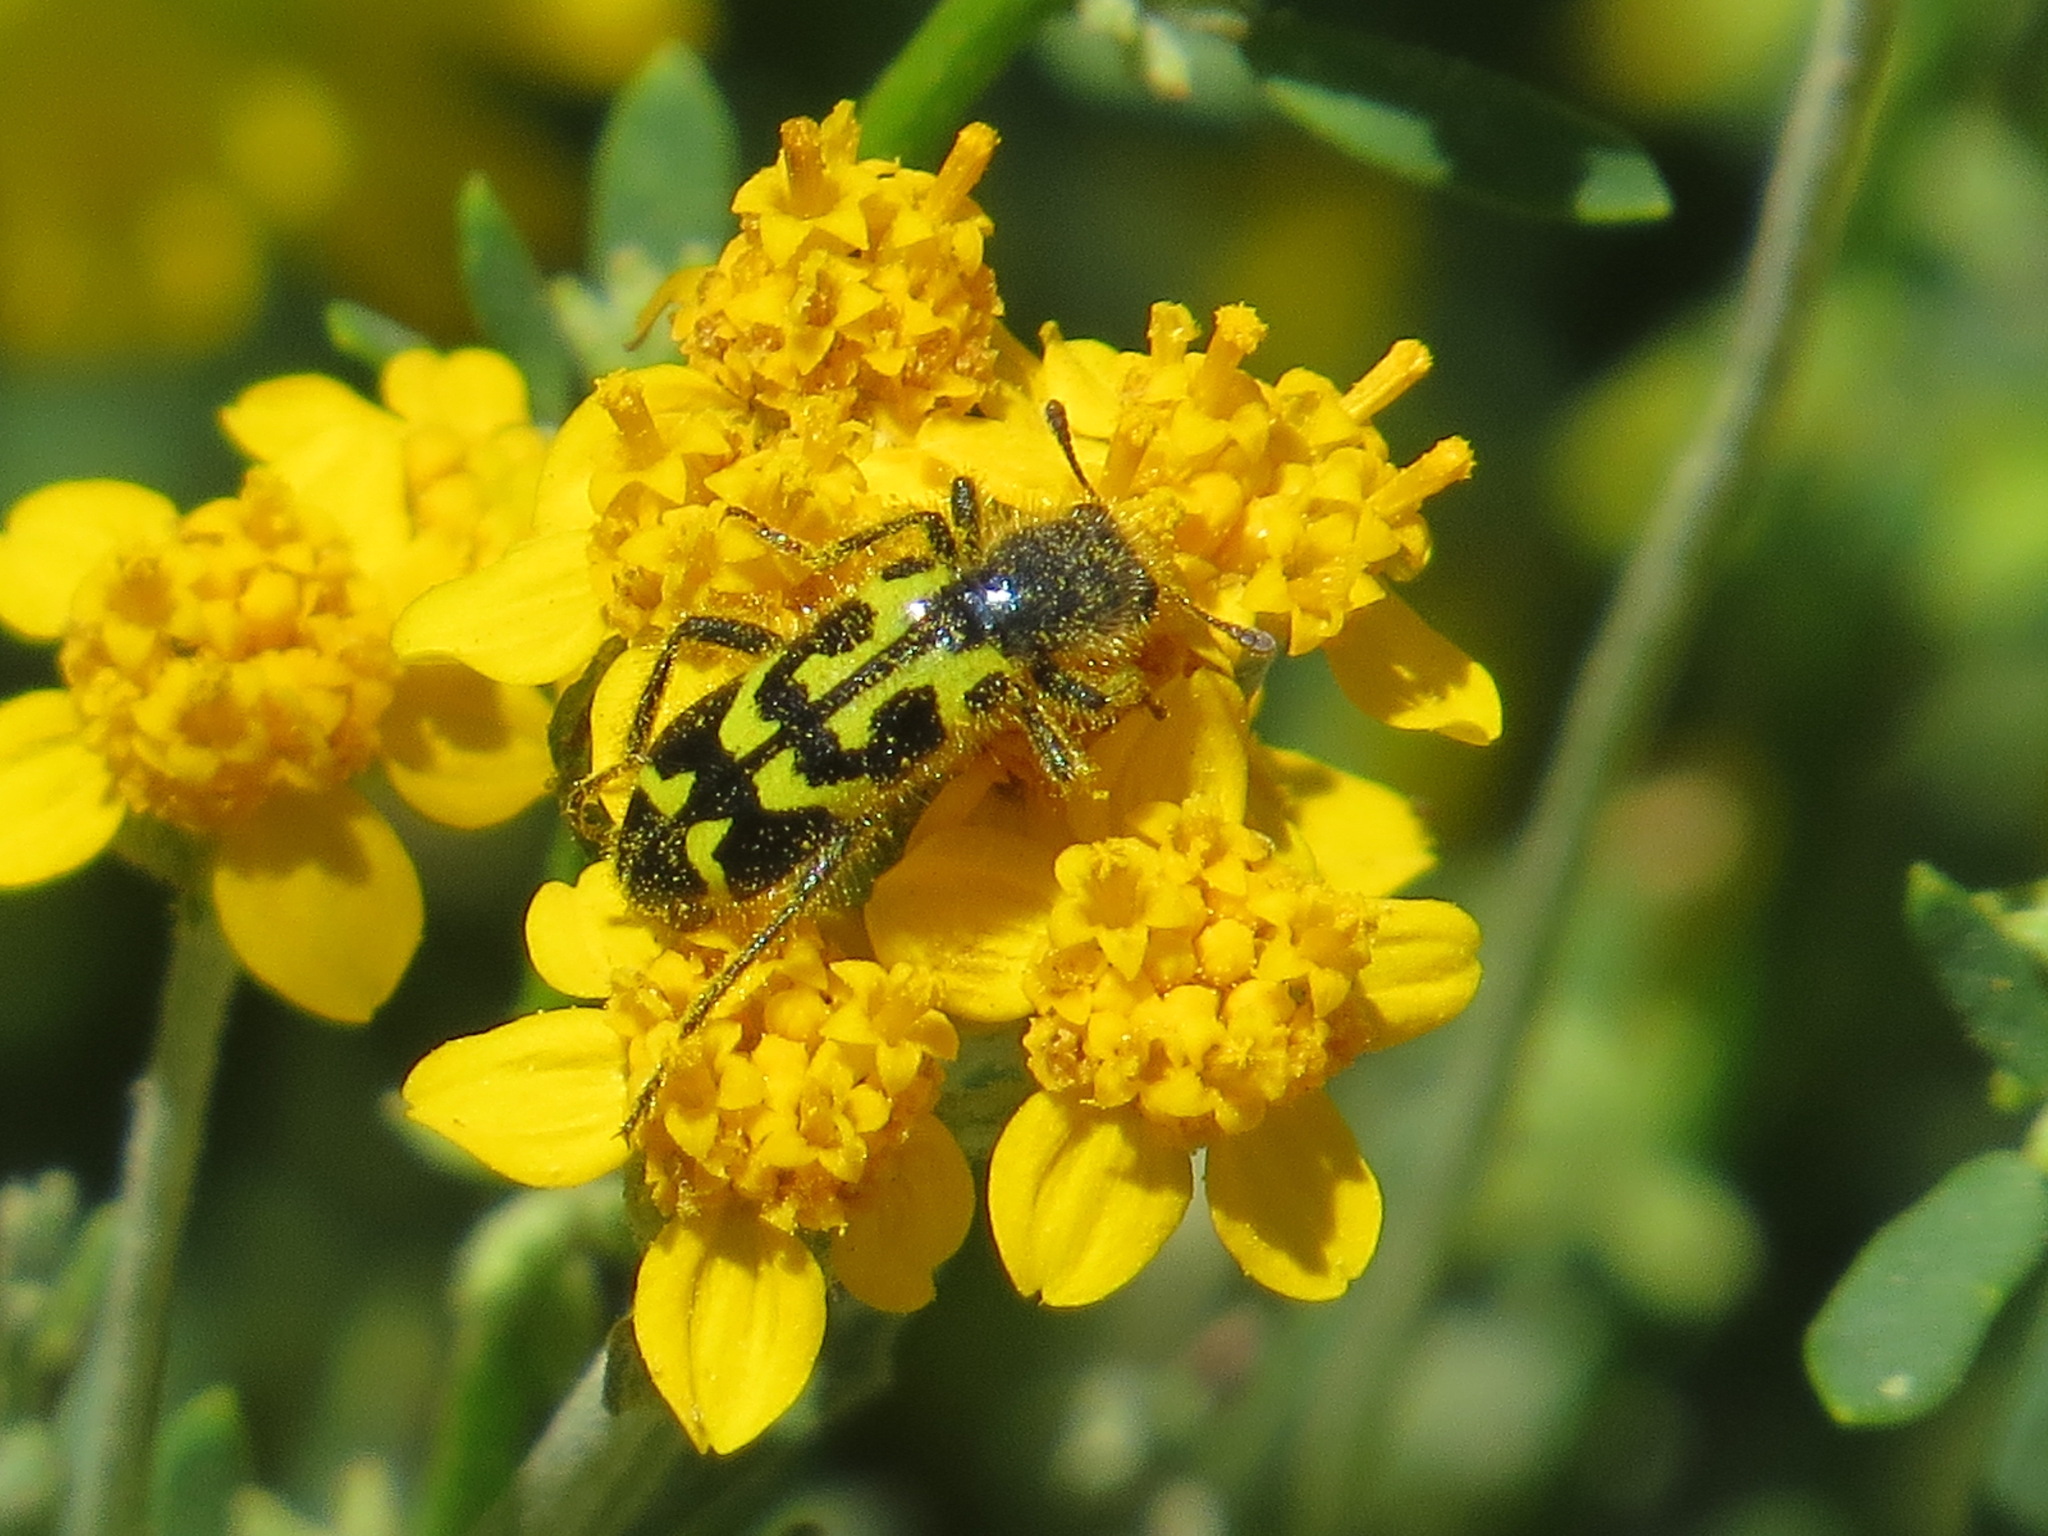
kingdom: Animalia
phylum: Arthropoda
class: Insecta
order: Coleoptera
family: Cleridae
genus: Trichodes
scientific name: Trichodes ornatus
